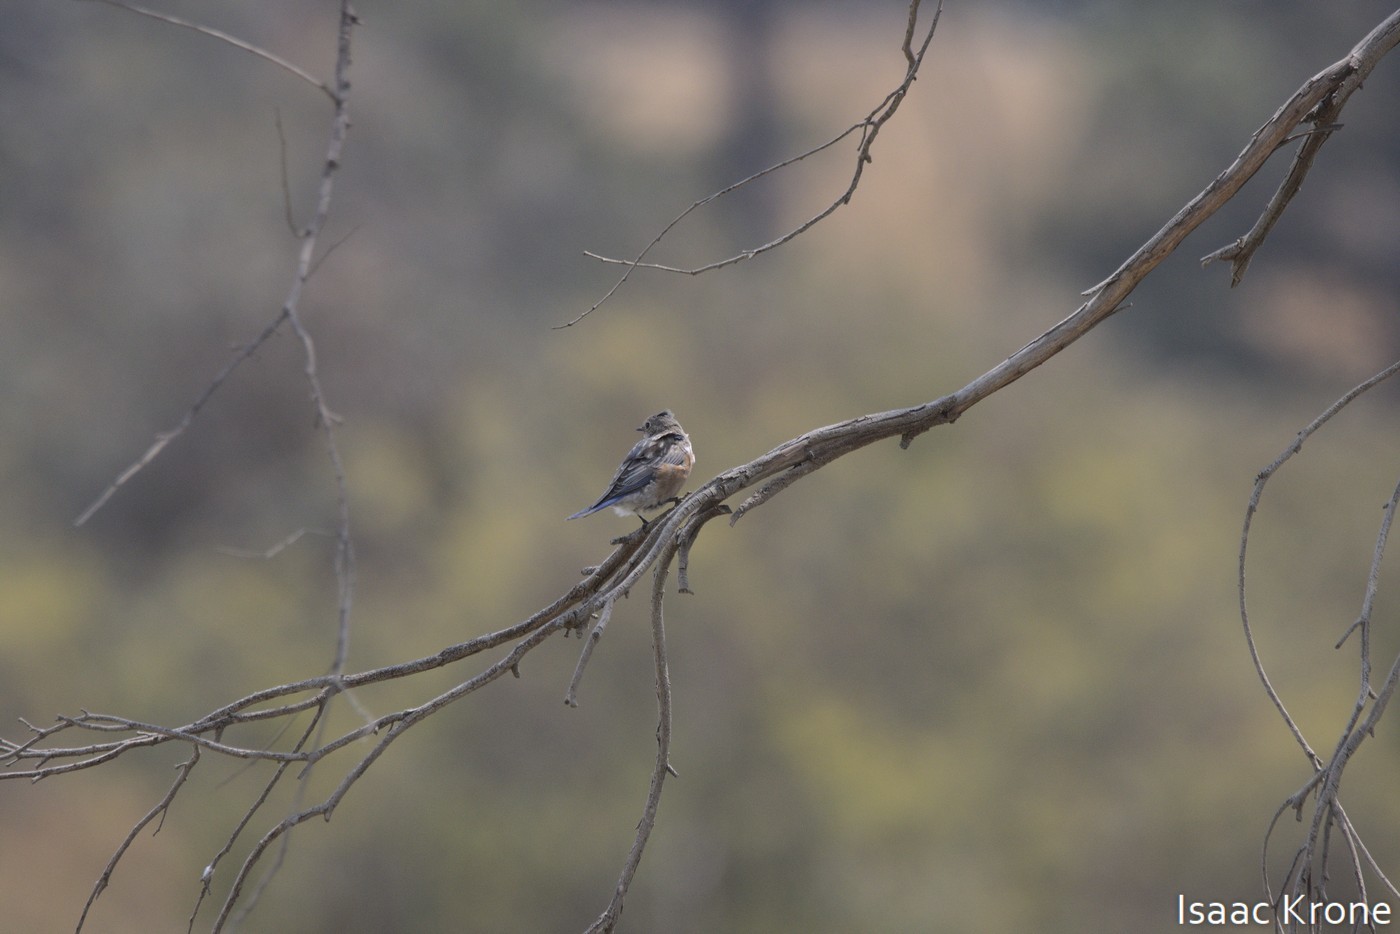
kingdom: Animalia
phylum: Chordata
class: Aves
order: Passeriformes
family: Turdidae
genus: Sialia
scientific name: Sialia mexicana
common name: Western bluebird
